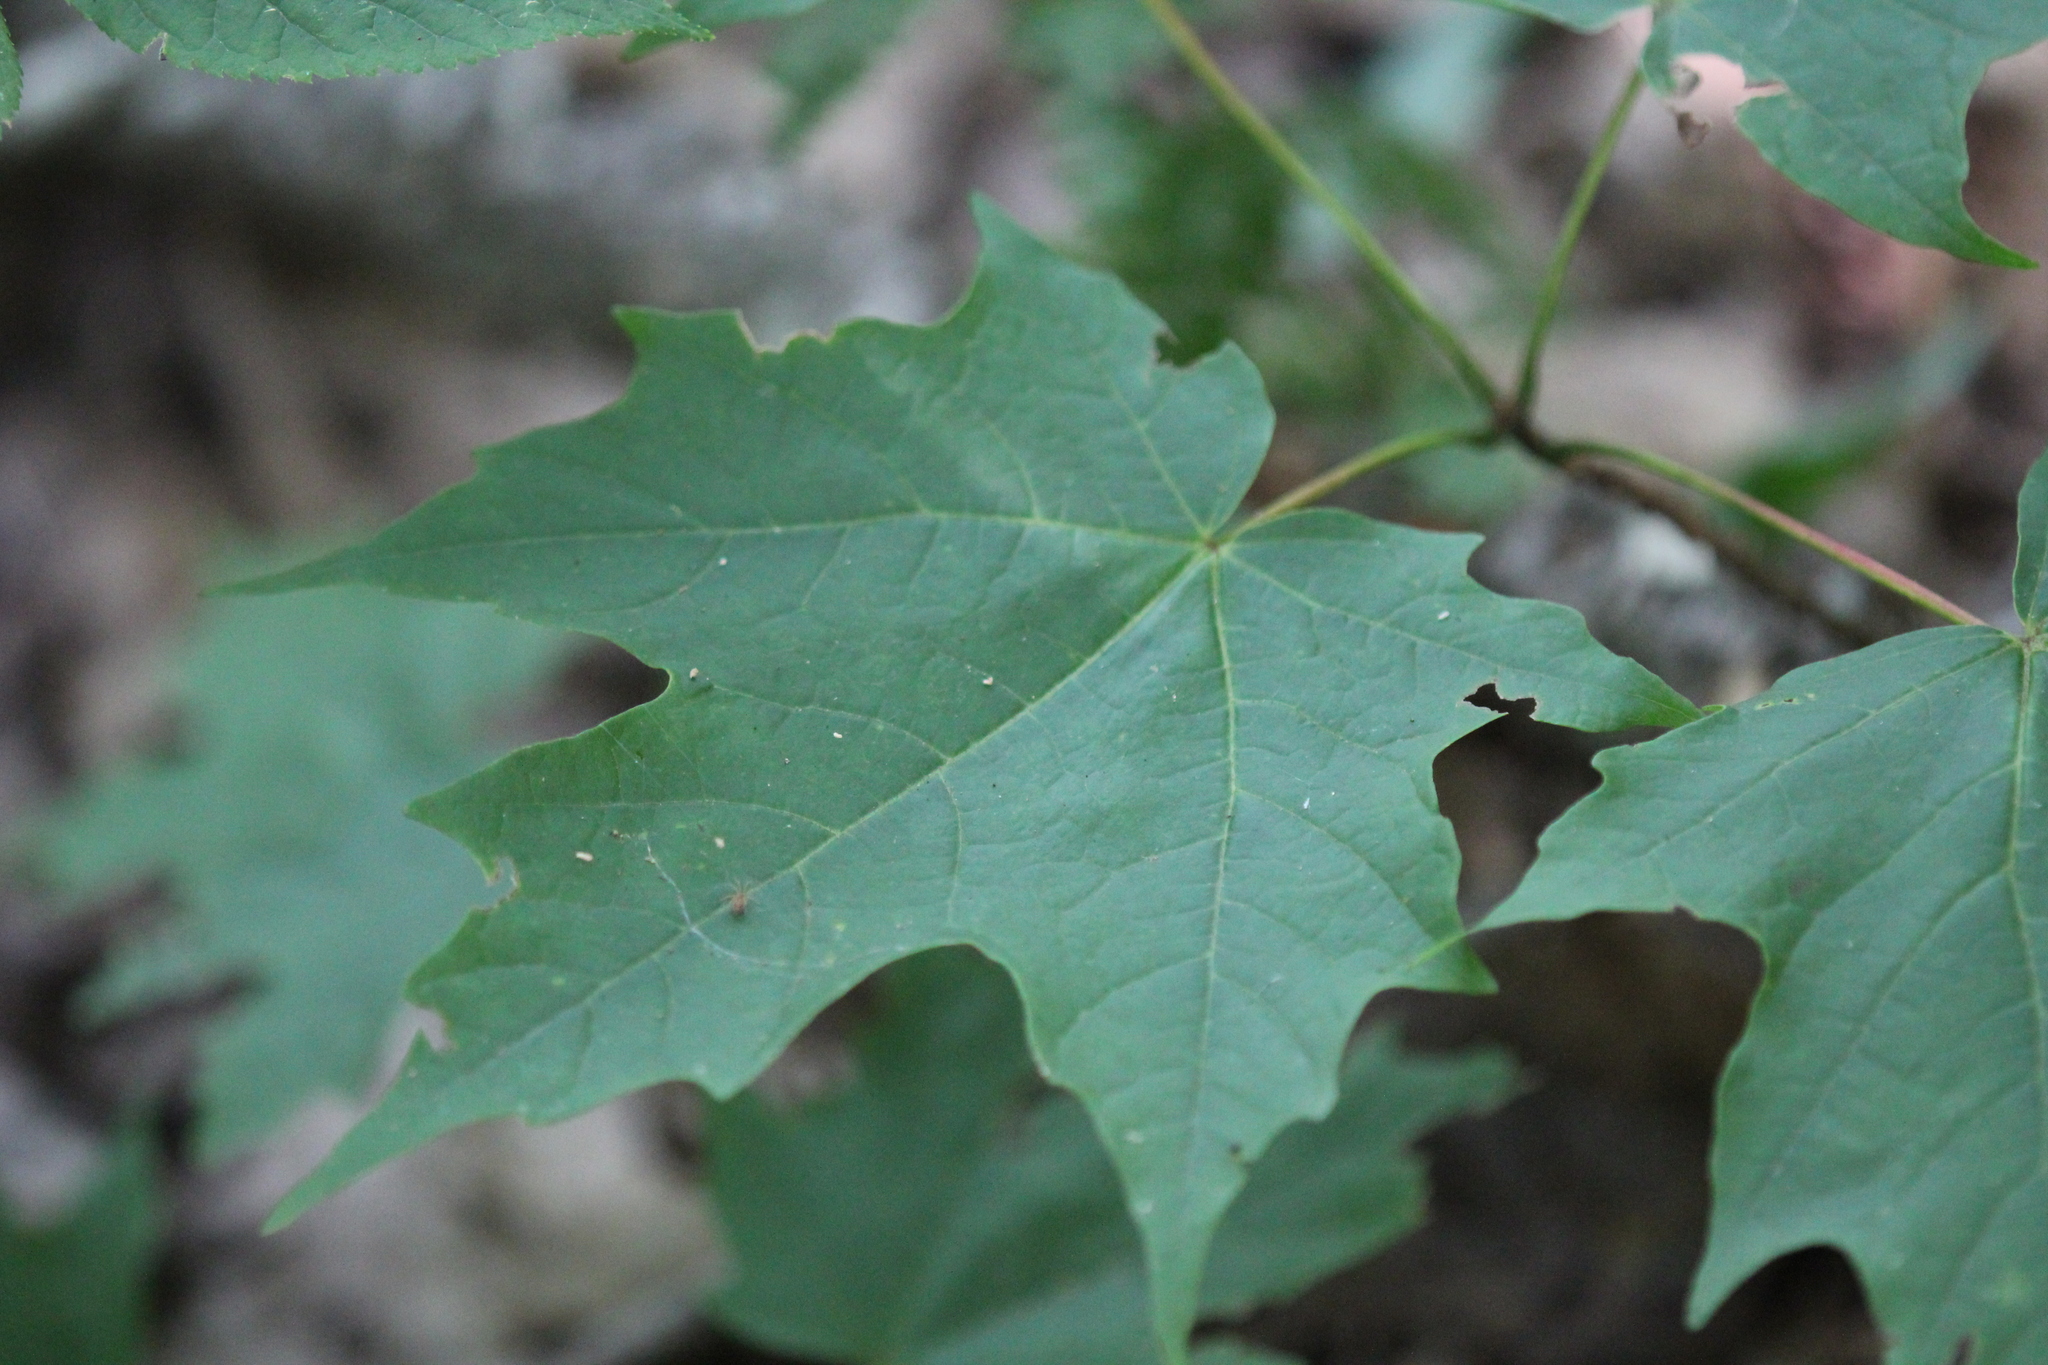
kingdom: Plantae
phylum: Tracheophyta
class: Magnoliopsida
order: Sapindales
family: Sapindaceae
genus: Acer
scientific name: Acer saccharum
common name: Sugar maple
